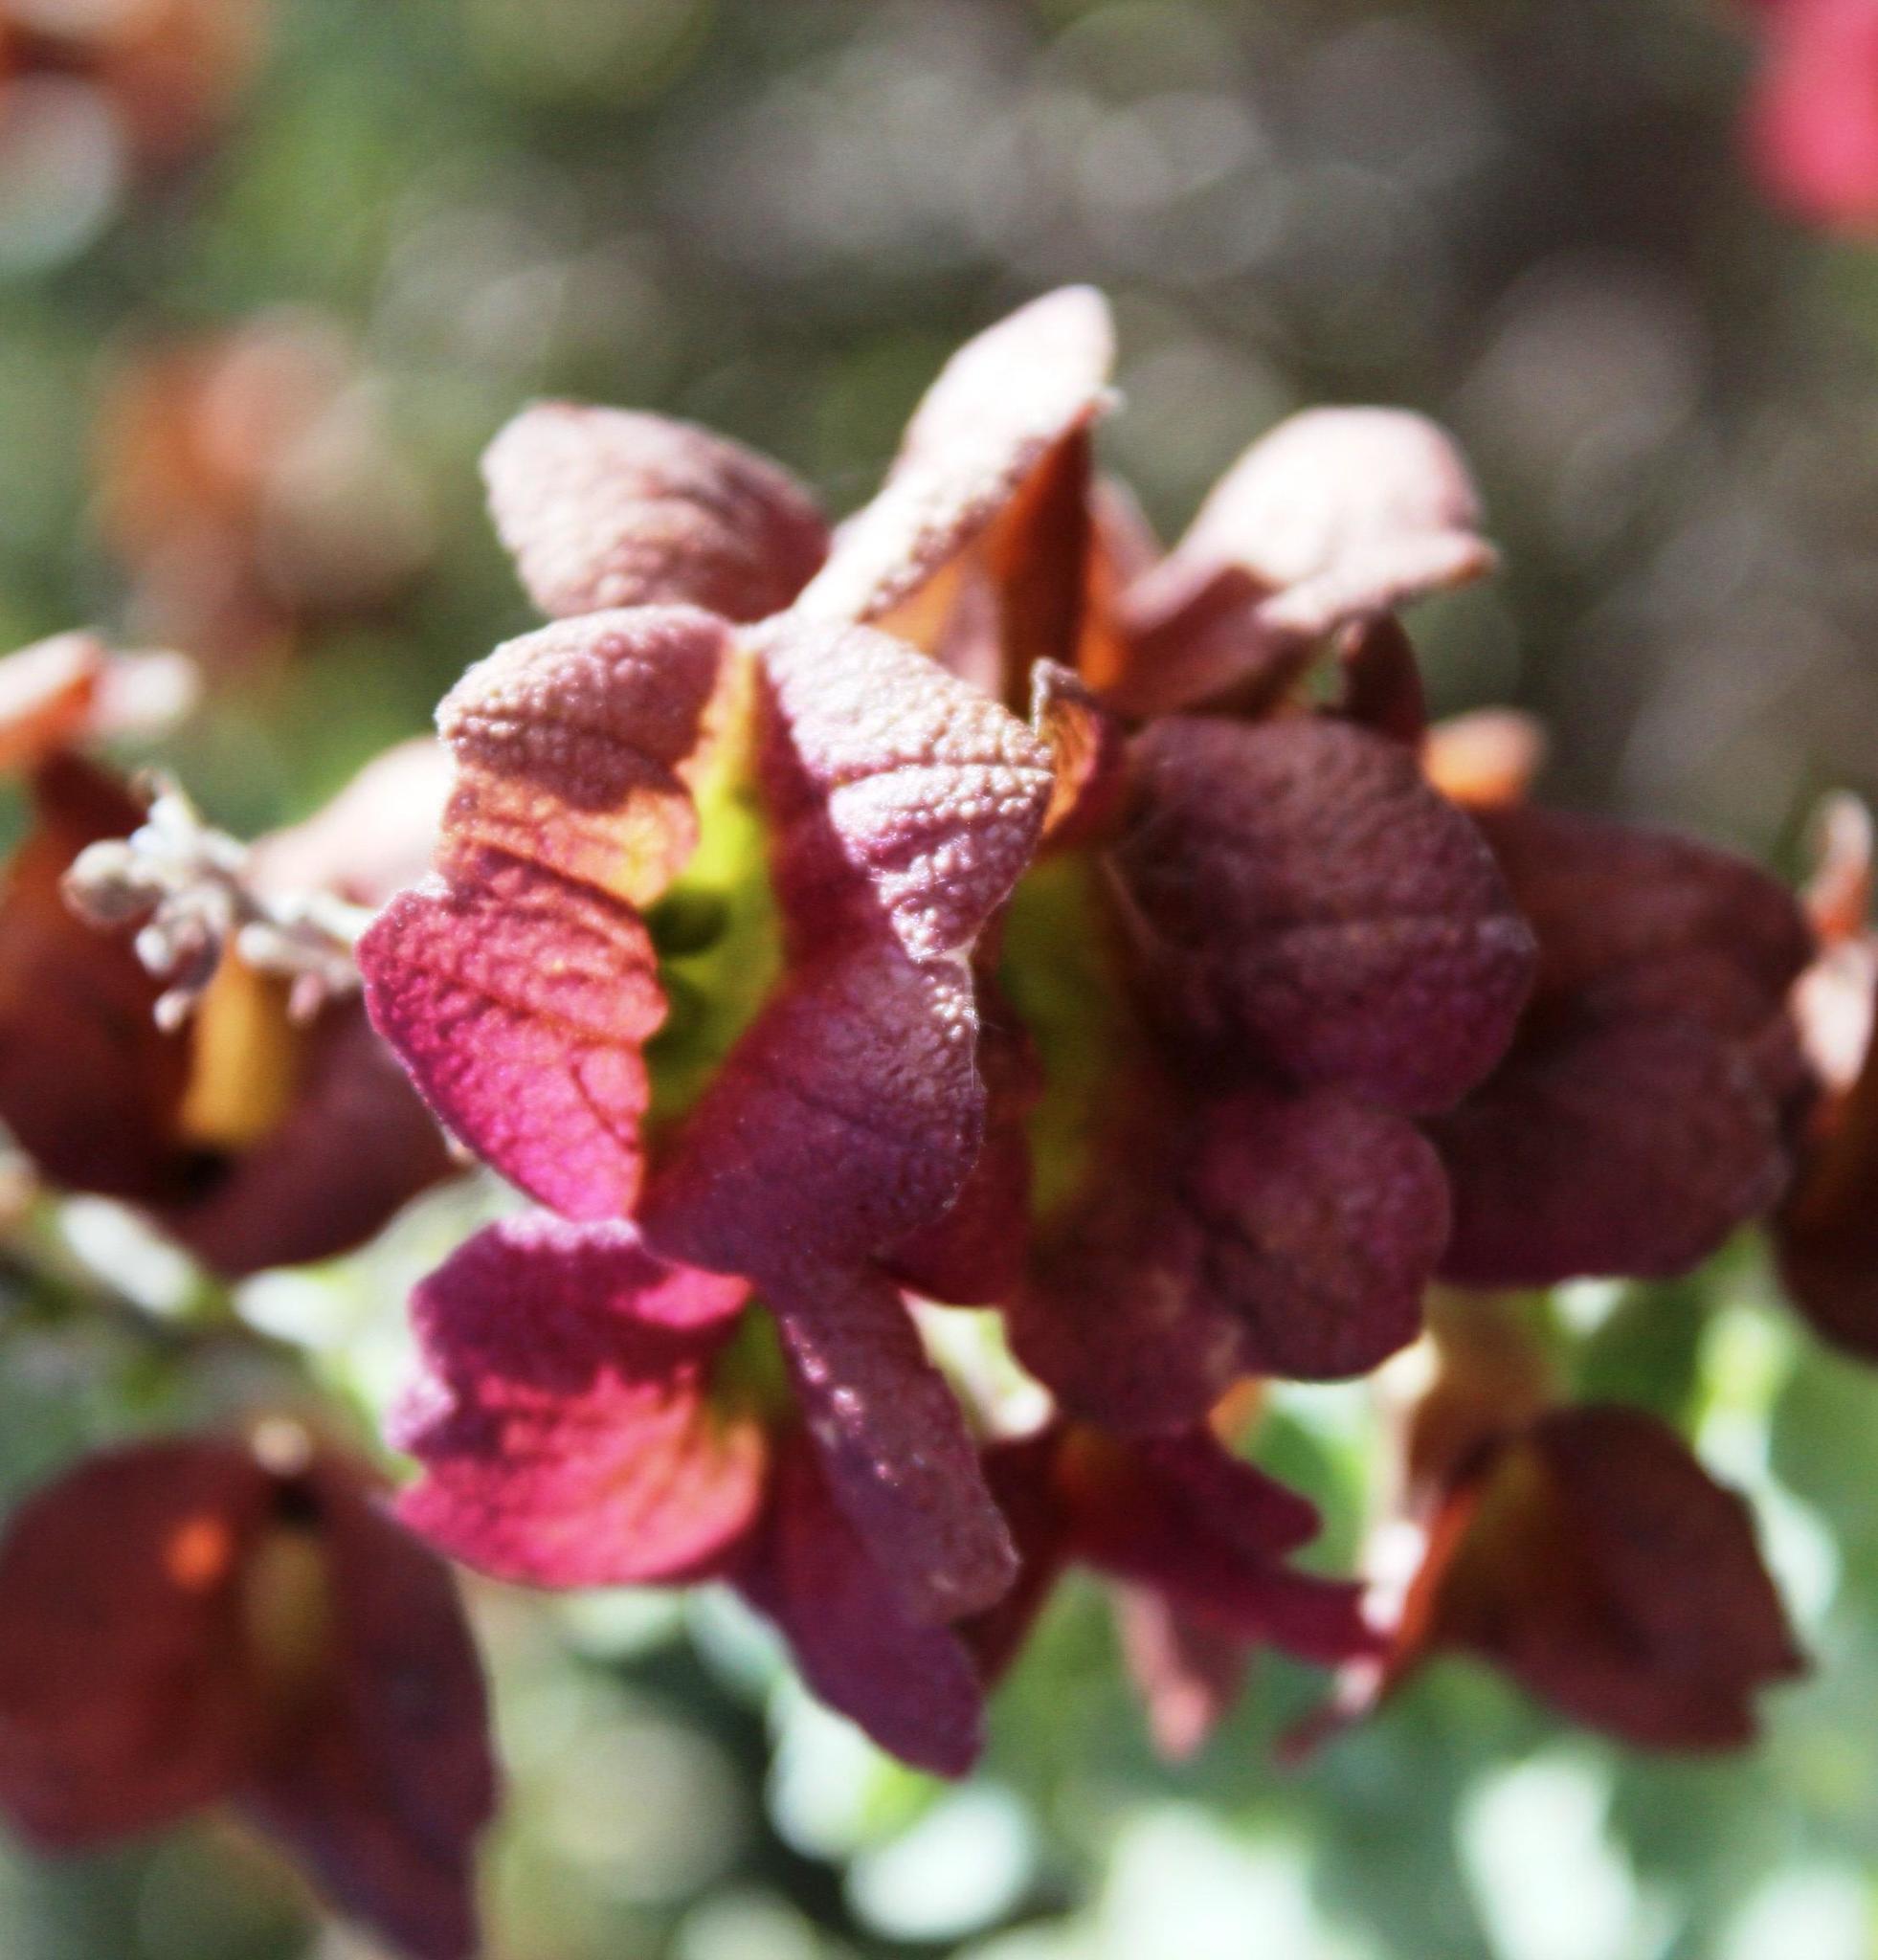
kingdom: Plantae
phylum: Tracheophyta
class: Magnoliopsida
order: Lamiales
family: Lamiaceae
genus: Salvia
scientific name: Salvia aurea
